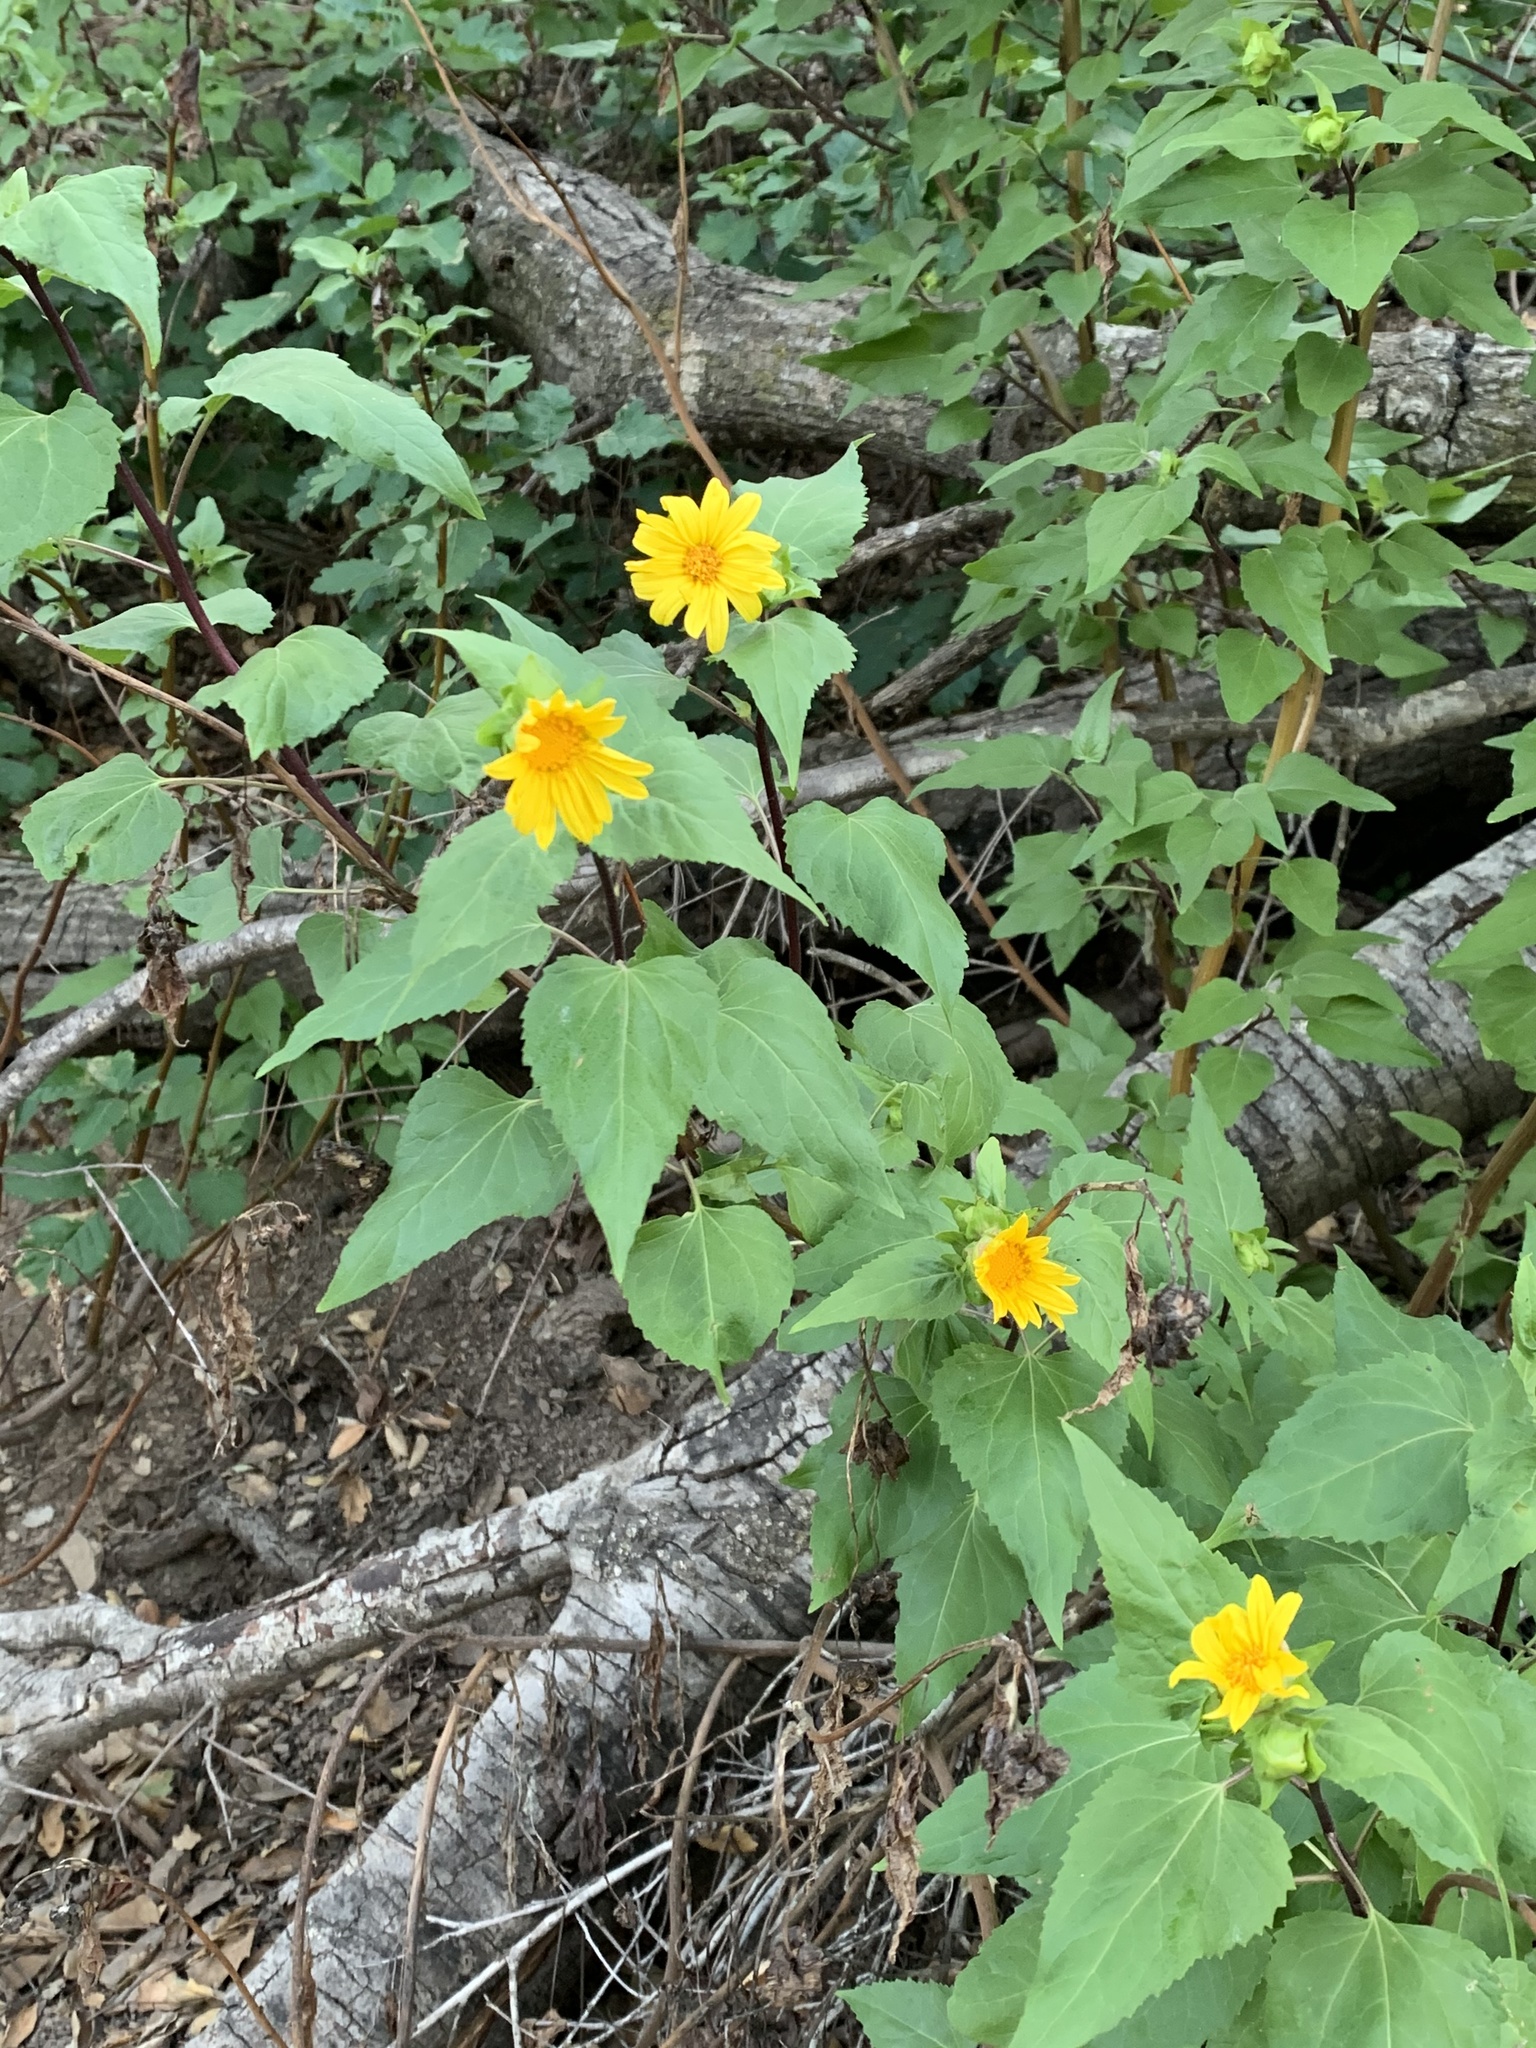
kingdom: Plantae
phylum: Tracheophyta
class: Magnoliopsida
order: Asterales
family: Asteraceae
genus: Venegasia
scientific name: Venegasia carpesioides
